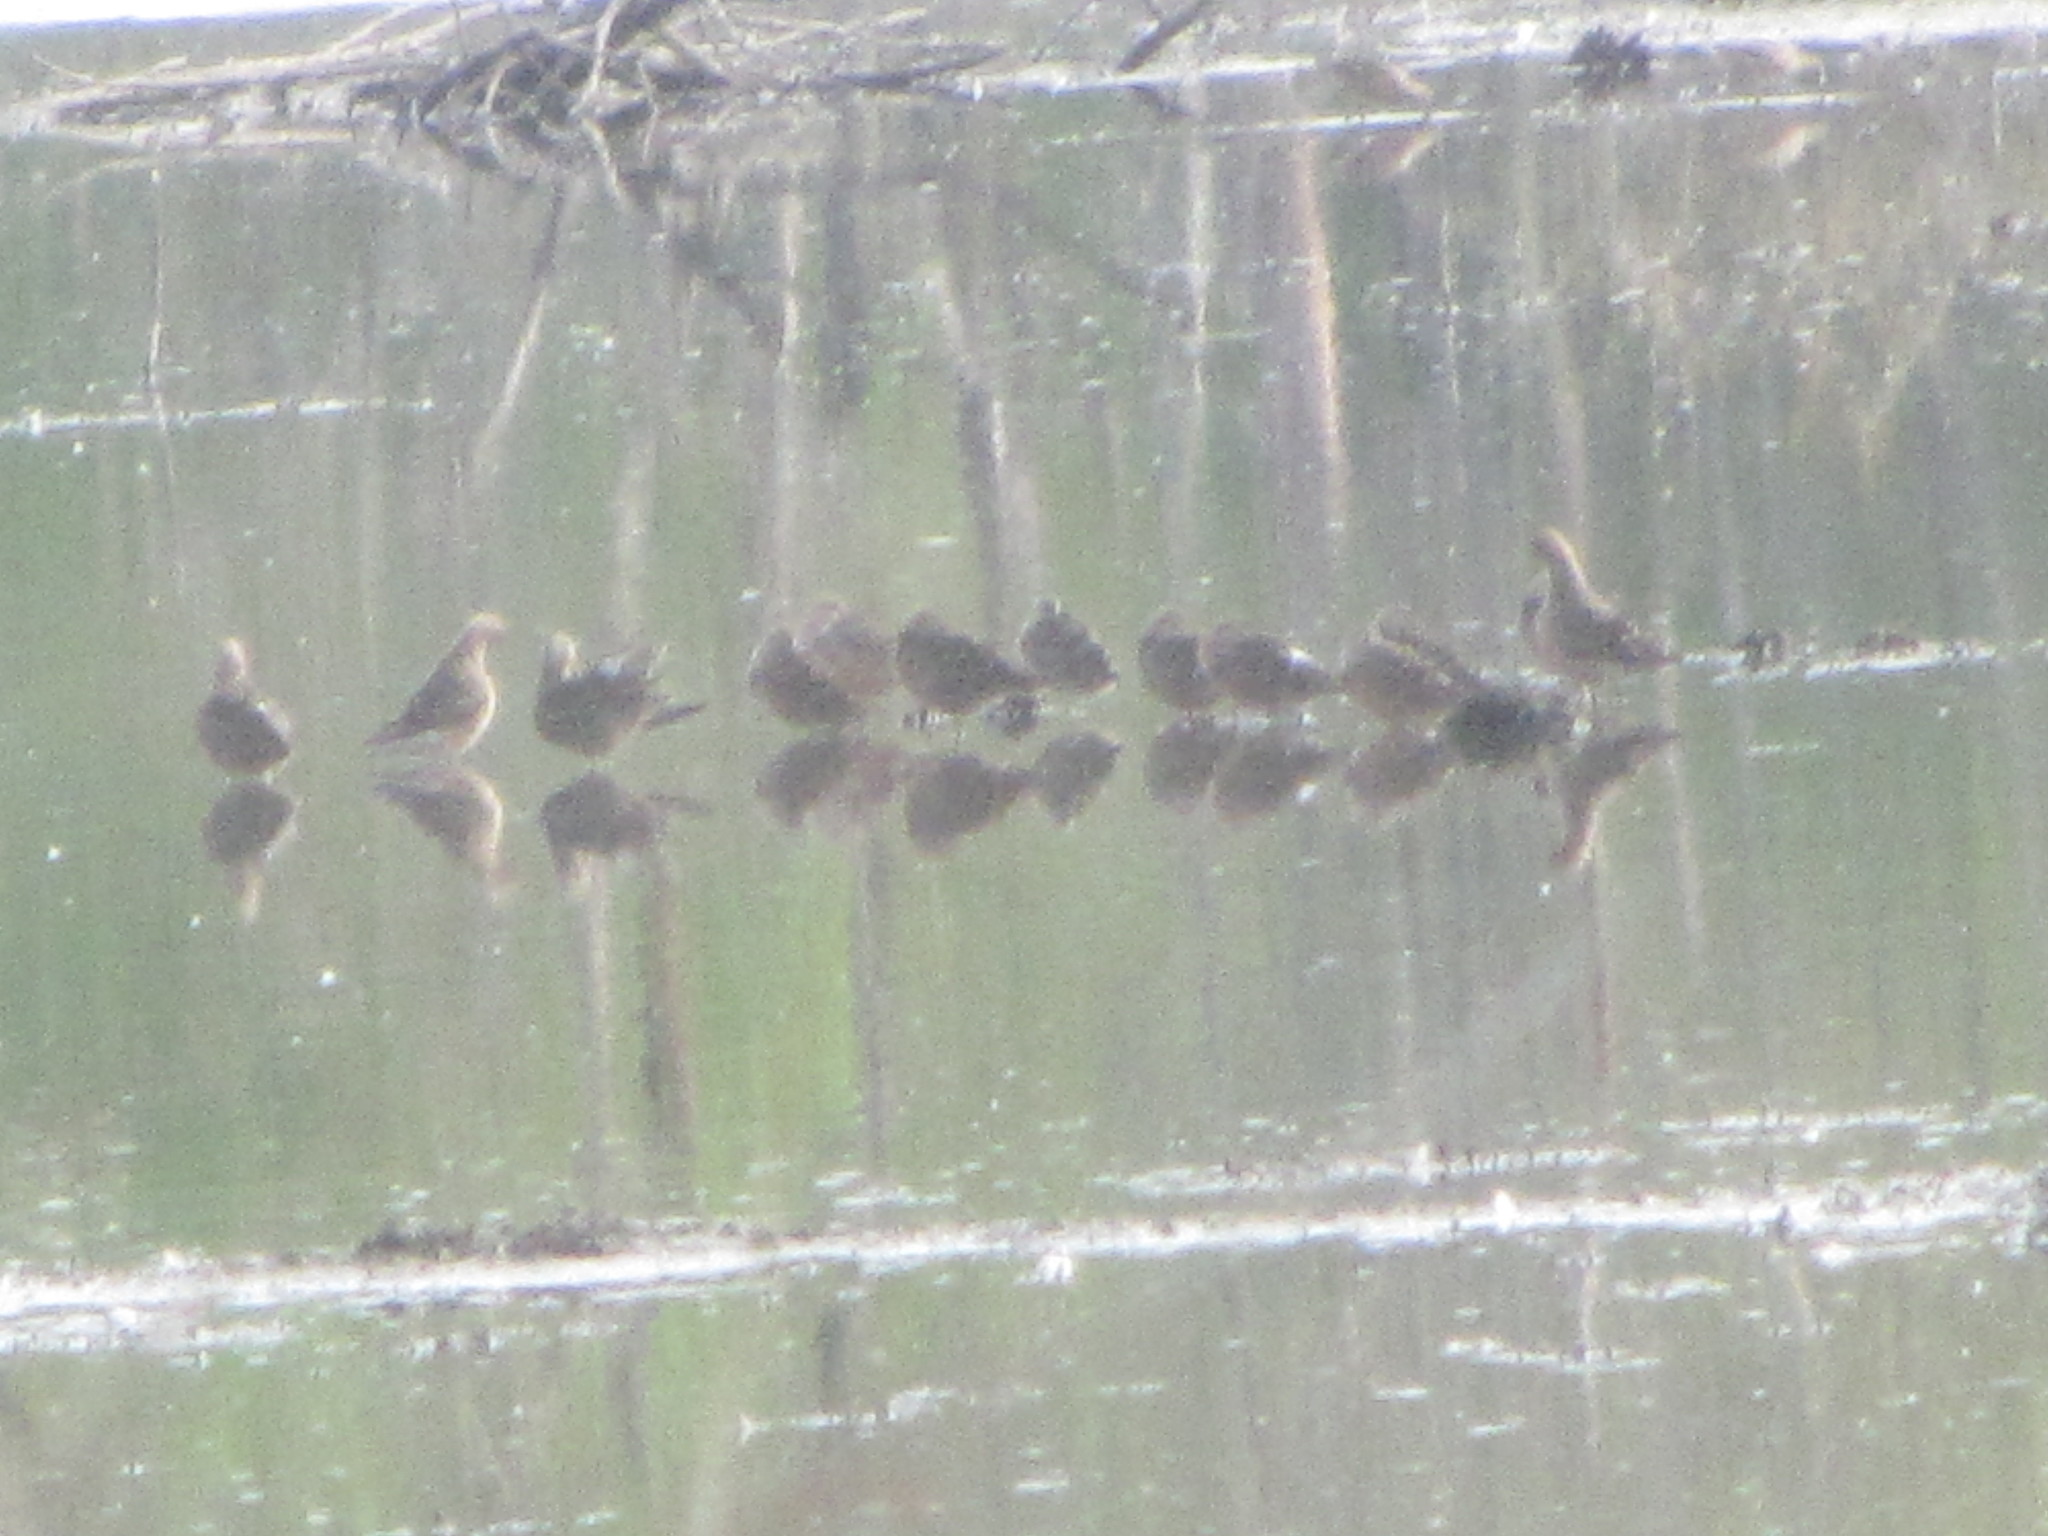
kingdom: Animalia
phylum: Chordata
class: Aves
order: Charadriiformes
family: Scolopacidae
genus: Limnodromus
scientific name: Limnodromus scolopaceus
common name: Long-billed dowitcher
